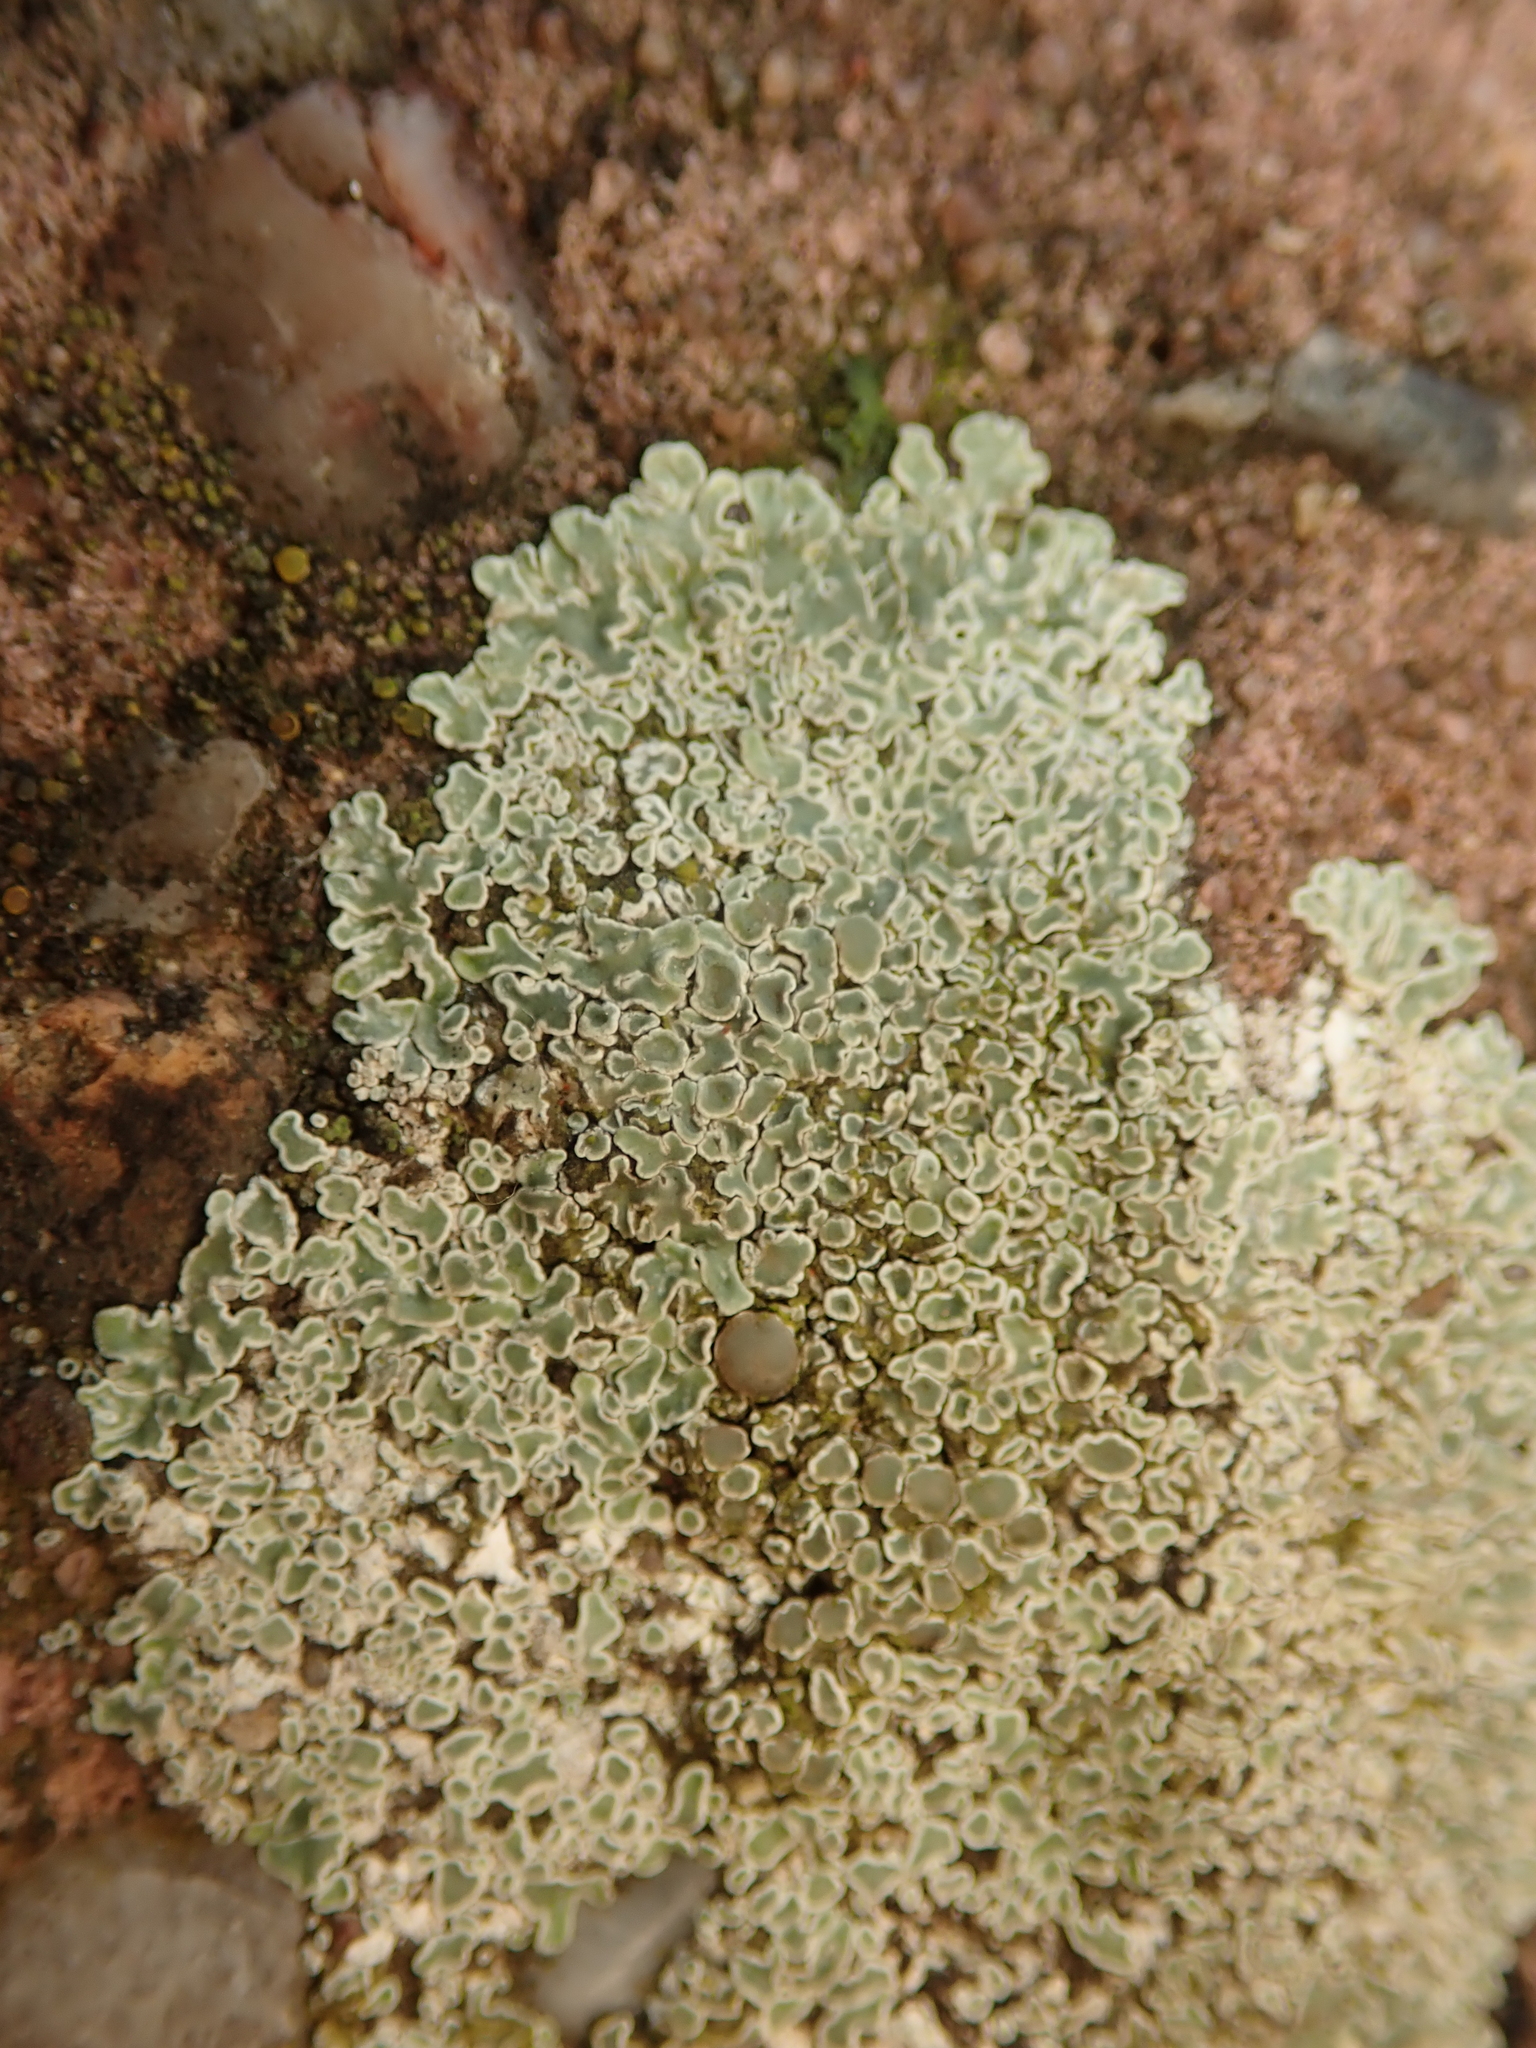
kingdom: Fungi
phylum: Ascomycota
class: Lecanoromycetes
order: Lecanorales
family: Lecanoraceae
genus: Protoparmeliopsis
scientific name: Protoparmeliopsis muralis
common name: Stonewall rim lichen
